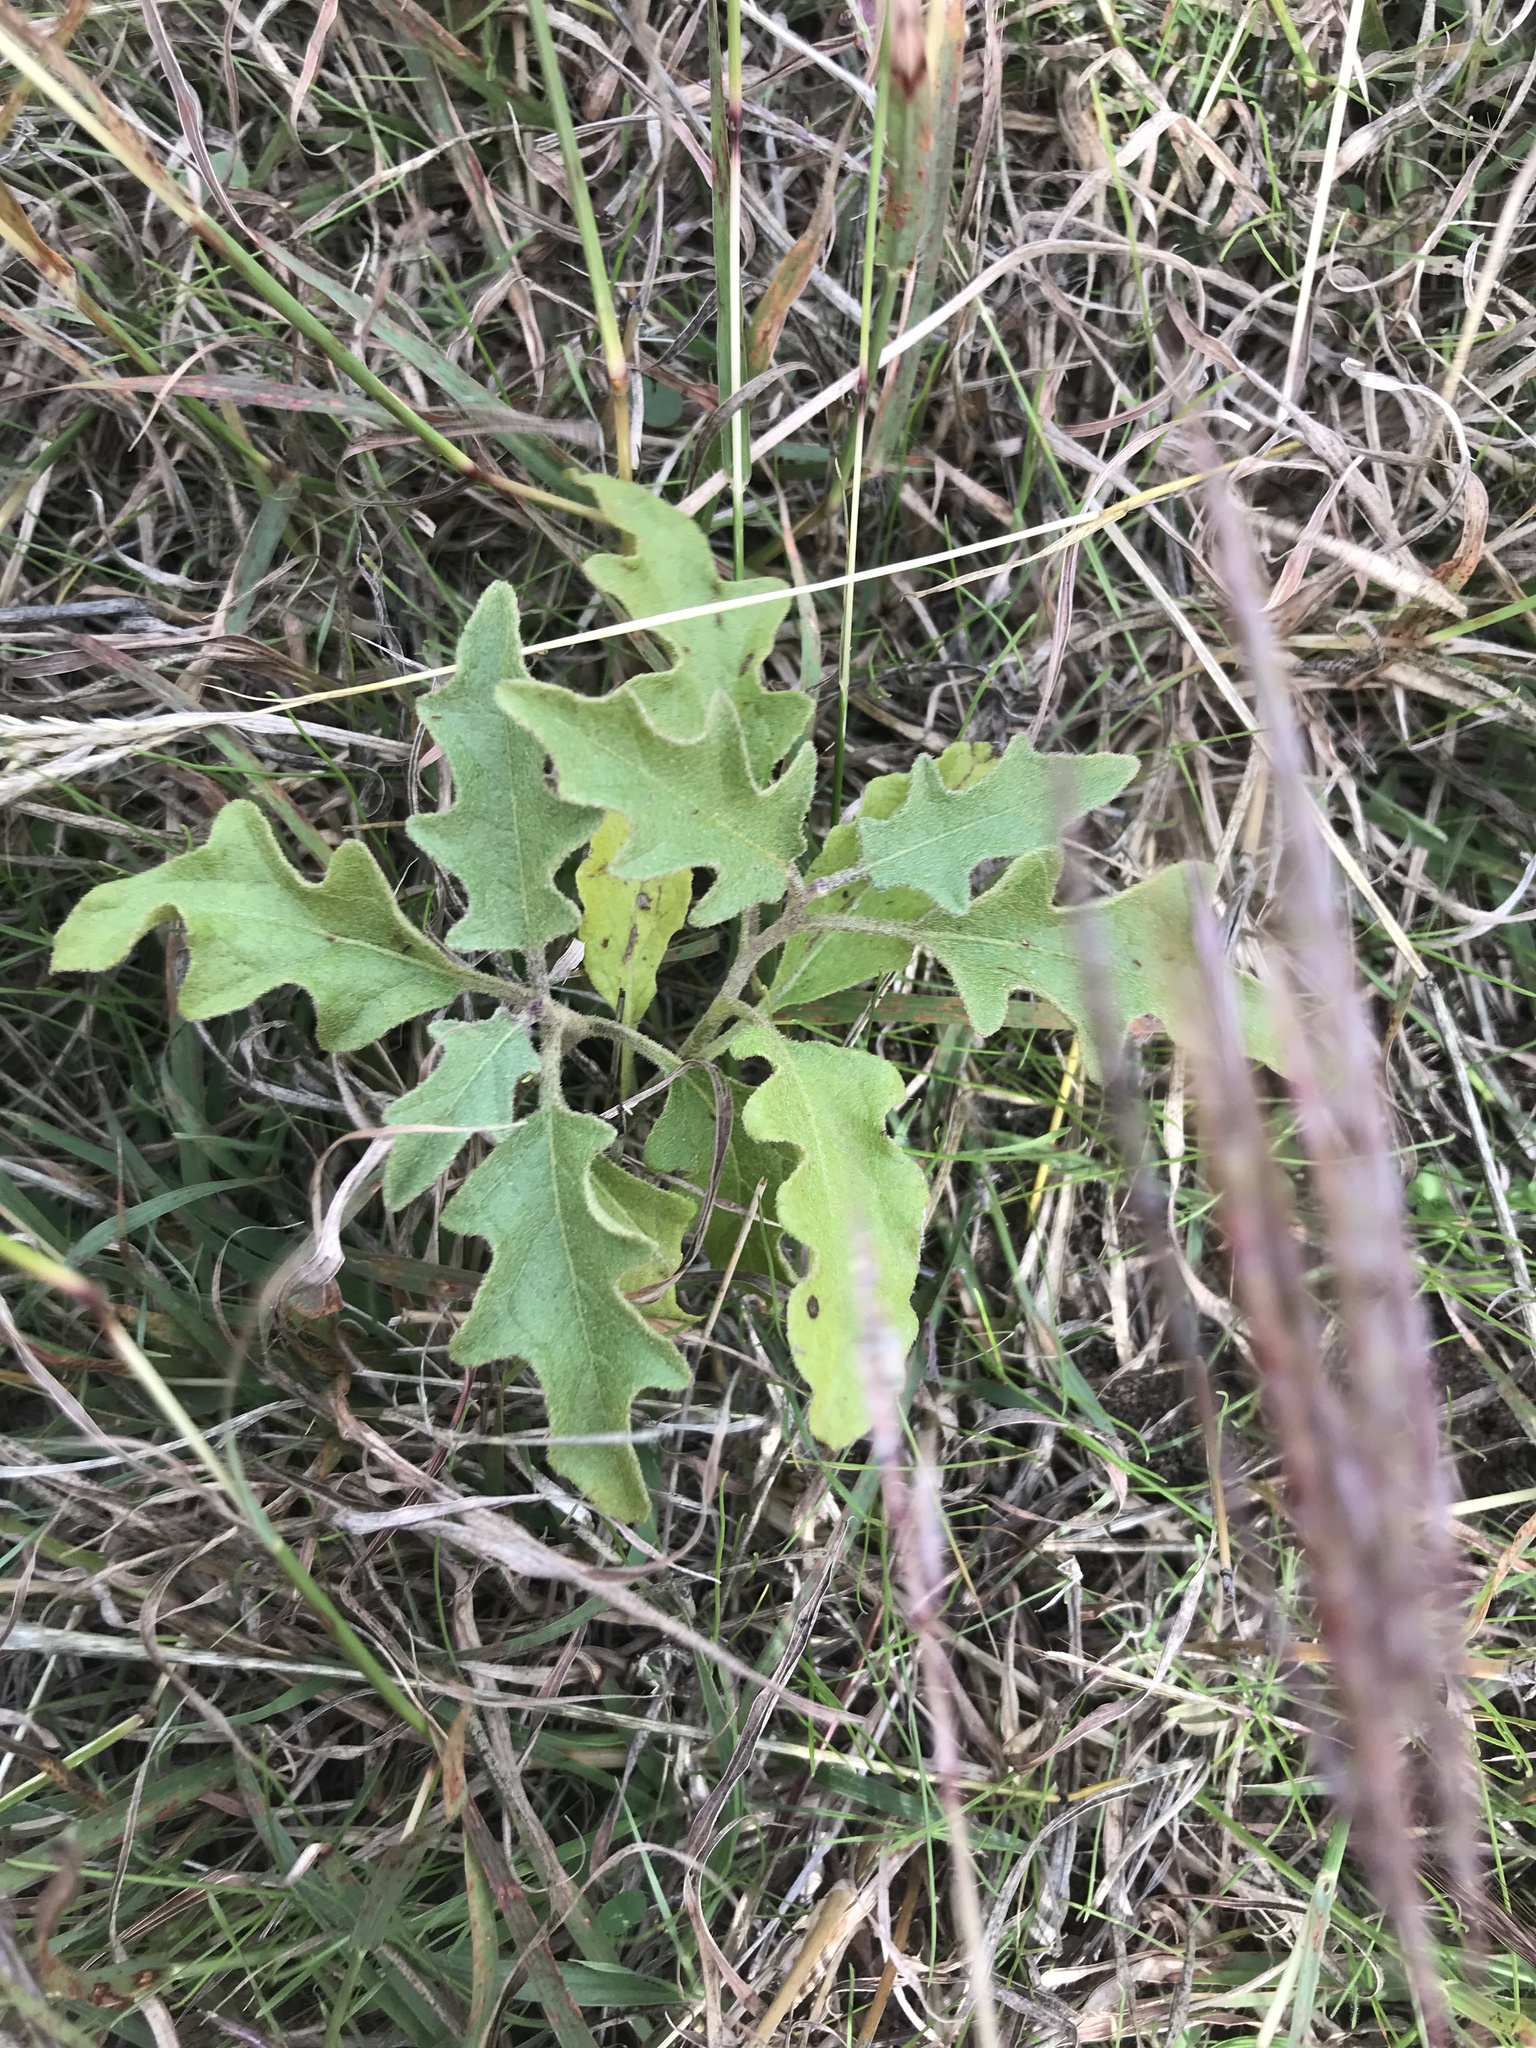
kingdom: Plantae
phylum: Tracheophyta
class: Magnoliopsida
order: Solanales
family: Solanaceae
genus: Solanum
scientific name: Solanum dimidiatum
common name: Carolina horse-nettle
